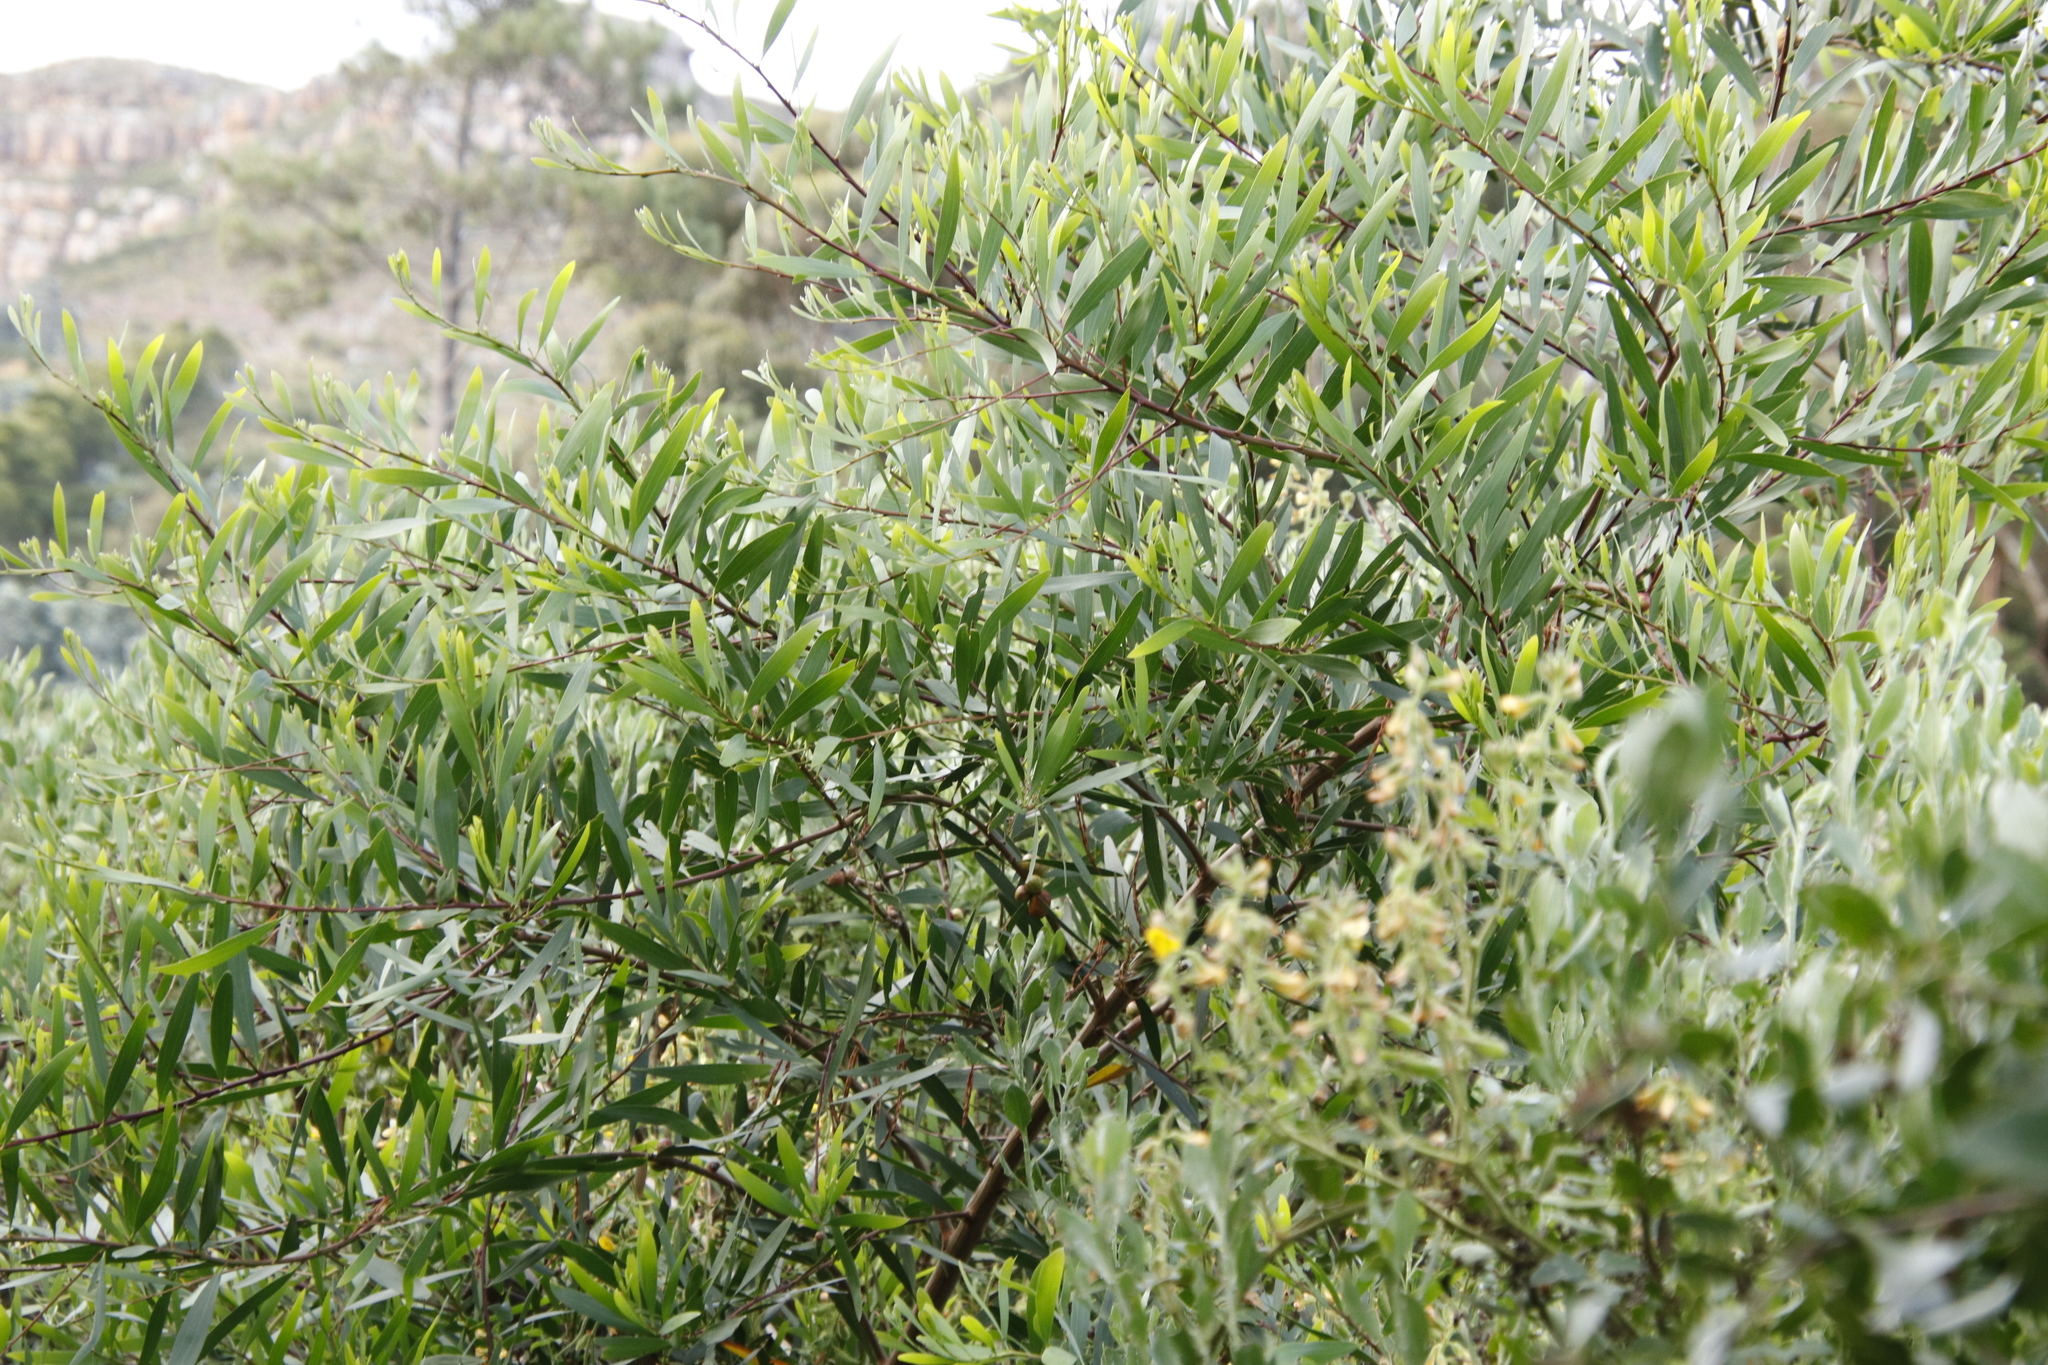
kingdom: Plantae
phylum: Tracheophyta
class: Magnoliopsida
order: Fabales
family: Fabaceae
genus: Acacia
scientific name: Acacia longifolia
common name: Sydney golden wattle
